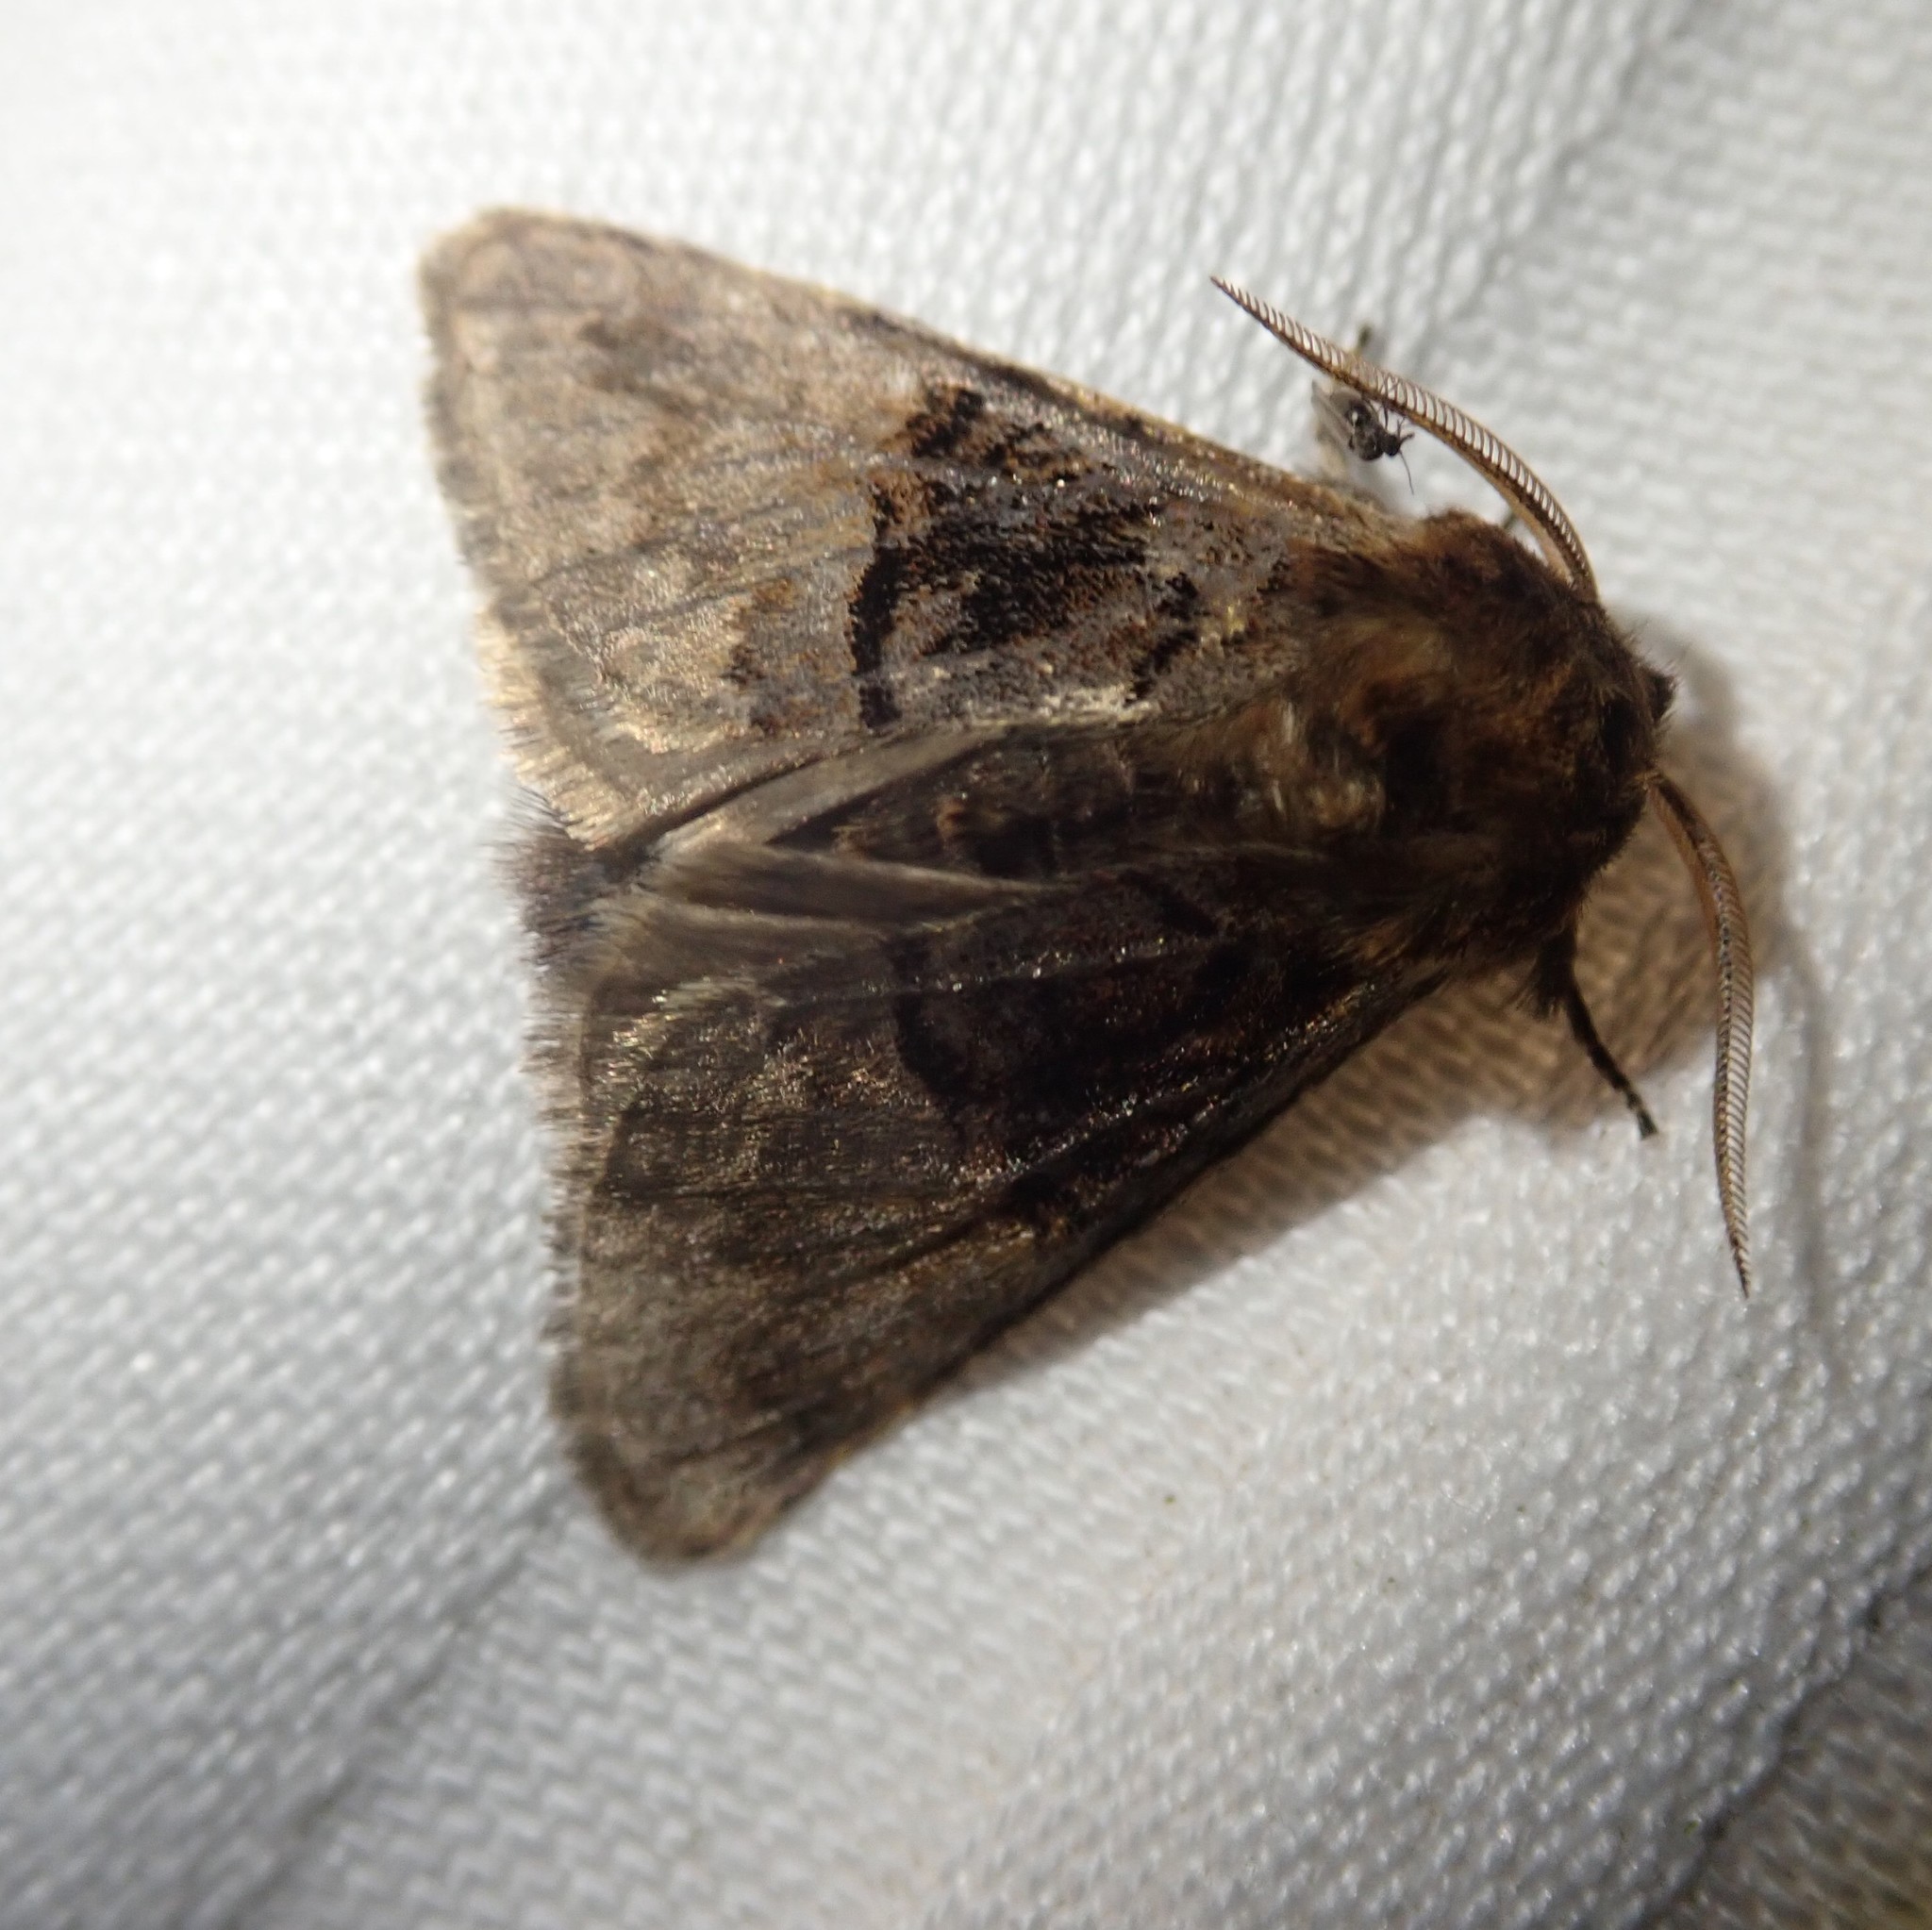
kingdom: Animalia
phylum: Arthropoda
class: Insecta
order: Lepidoptera
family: Noctuidae
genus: Colocasia
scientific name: Colocasia coryli
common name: Nut-tree tussock
